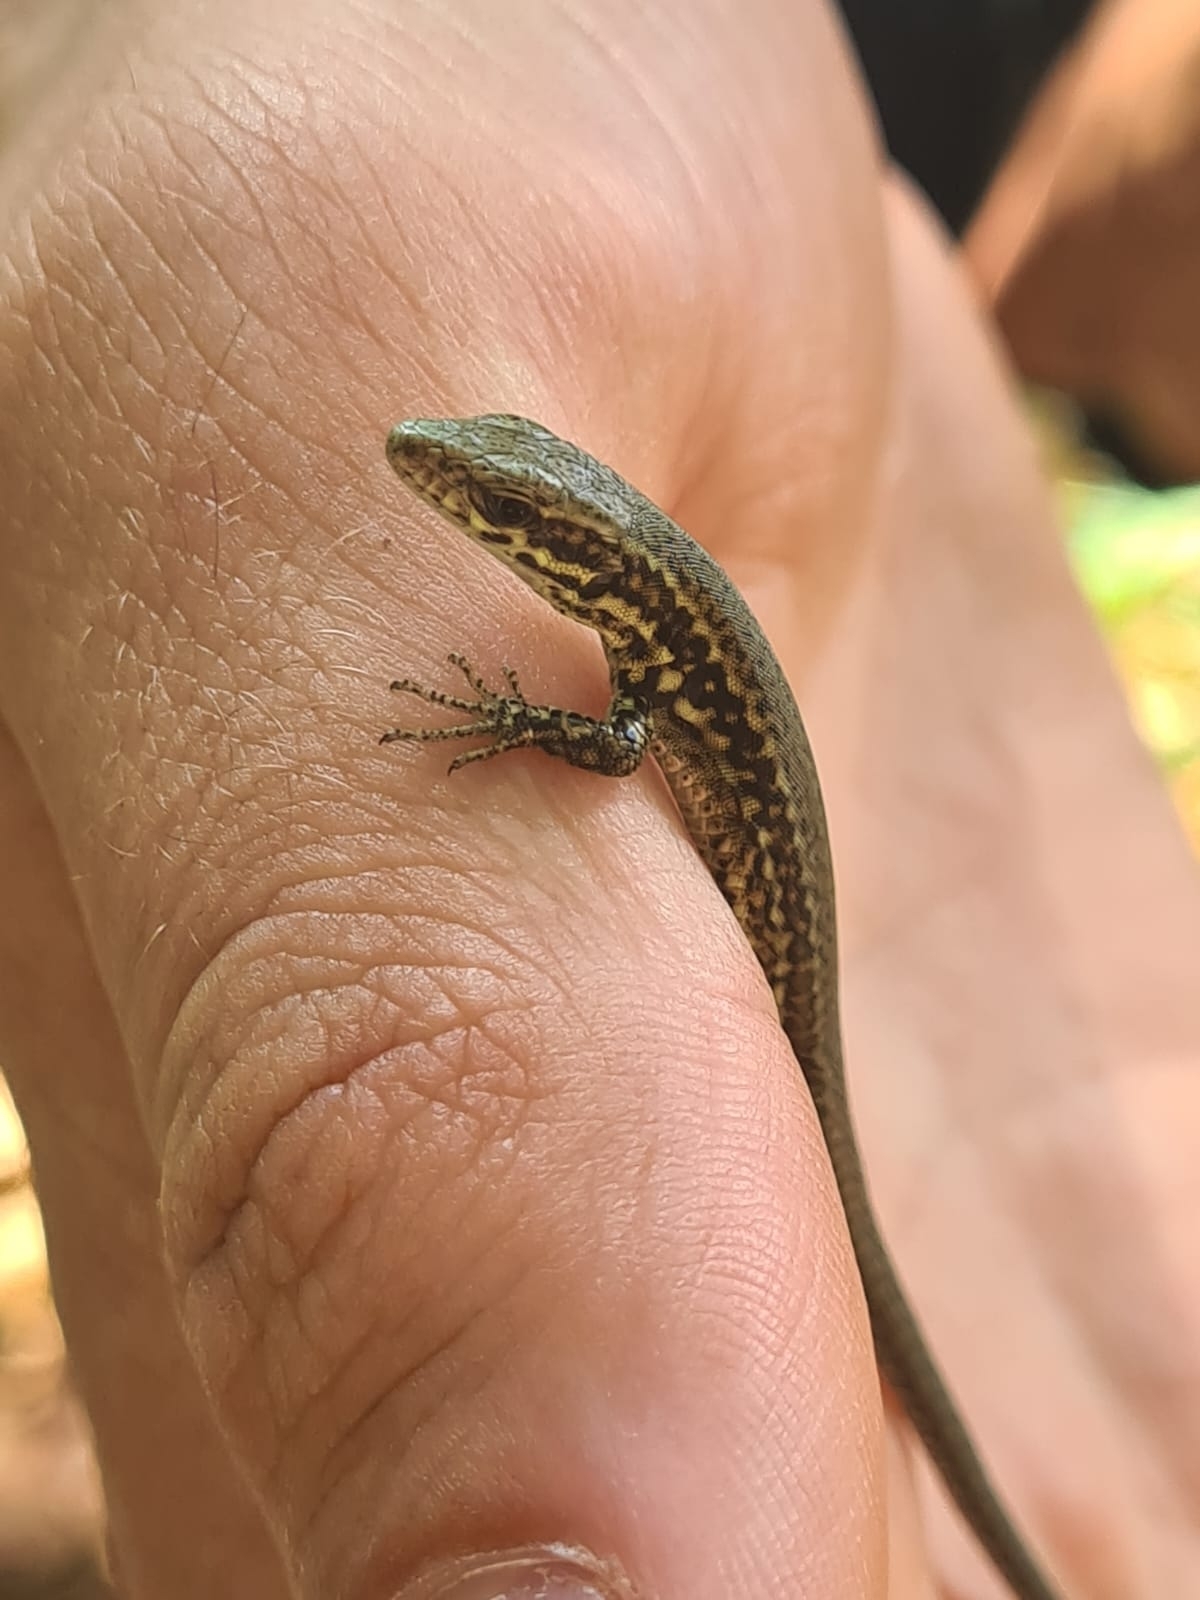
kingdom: Animalia
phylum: Chordata
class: Squamata
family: Lacertidae
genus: Podarcis
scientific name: Podarcis muralis
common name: Common wall lizard
